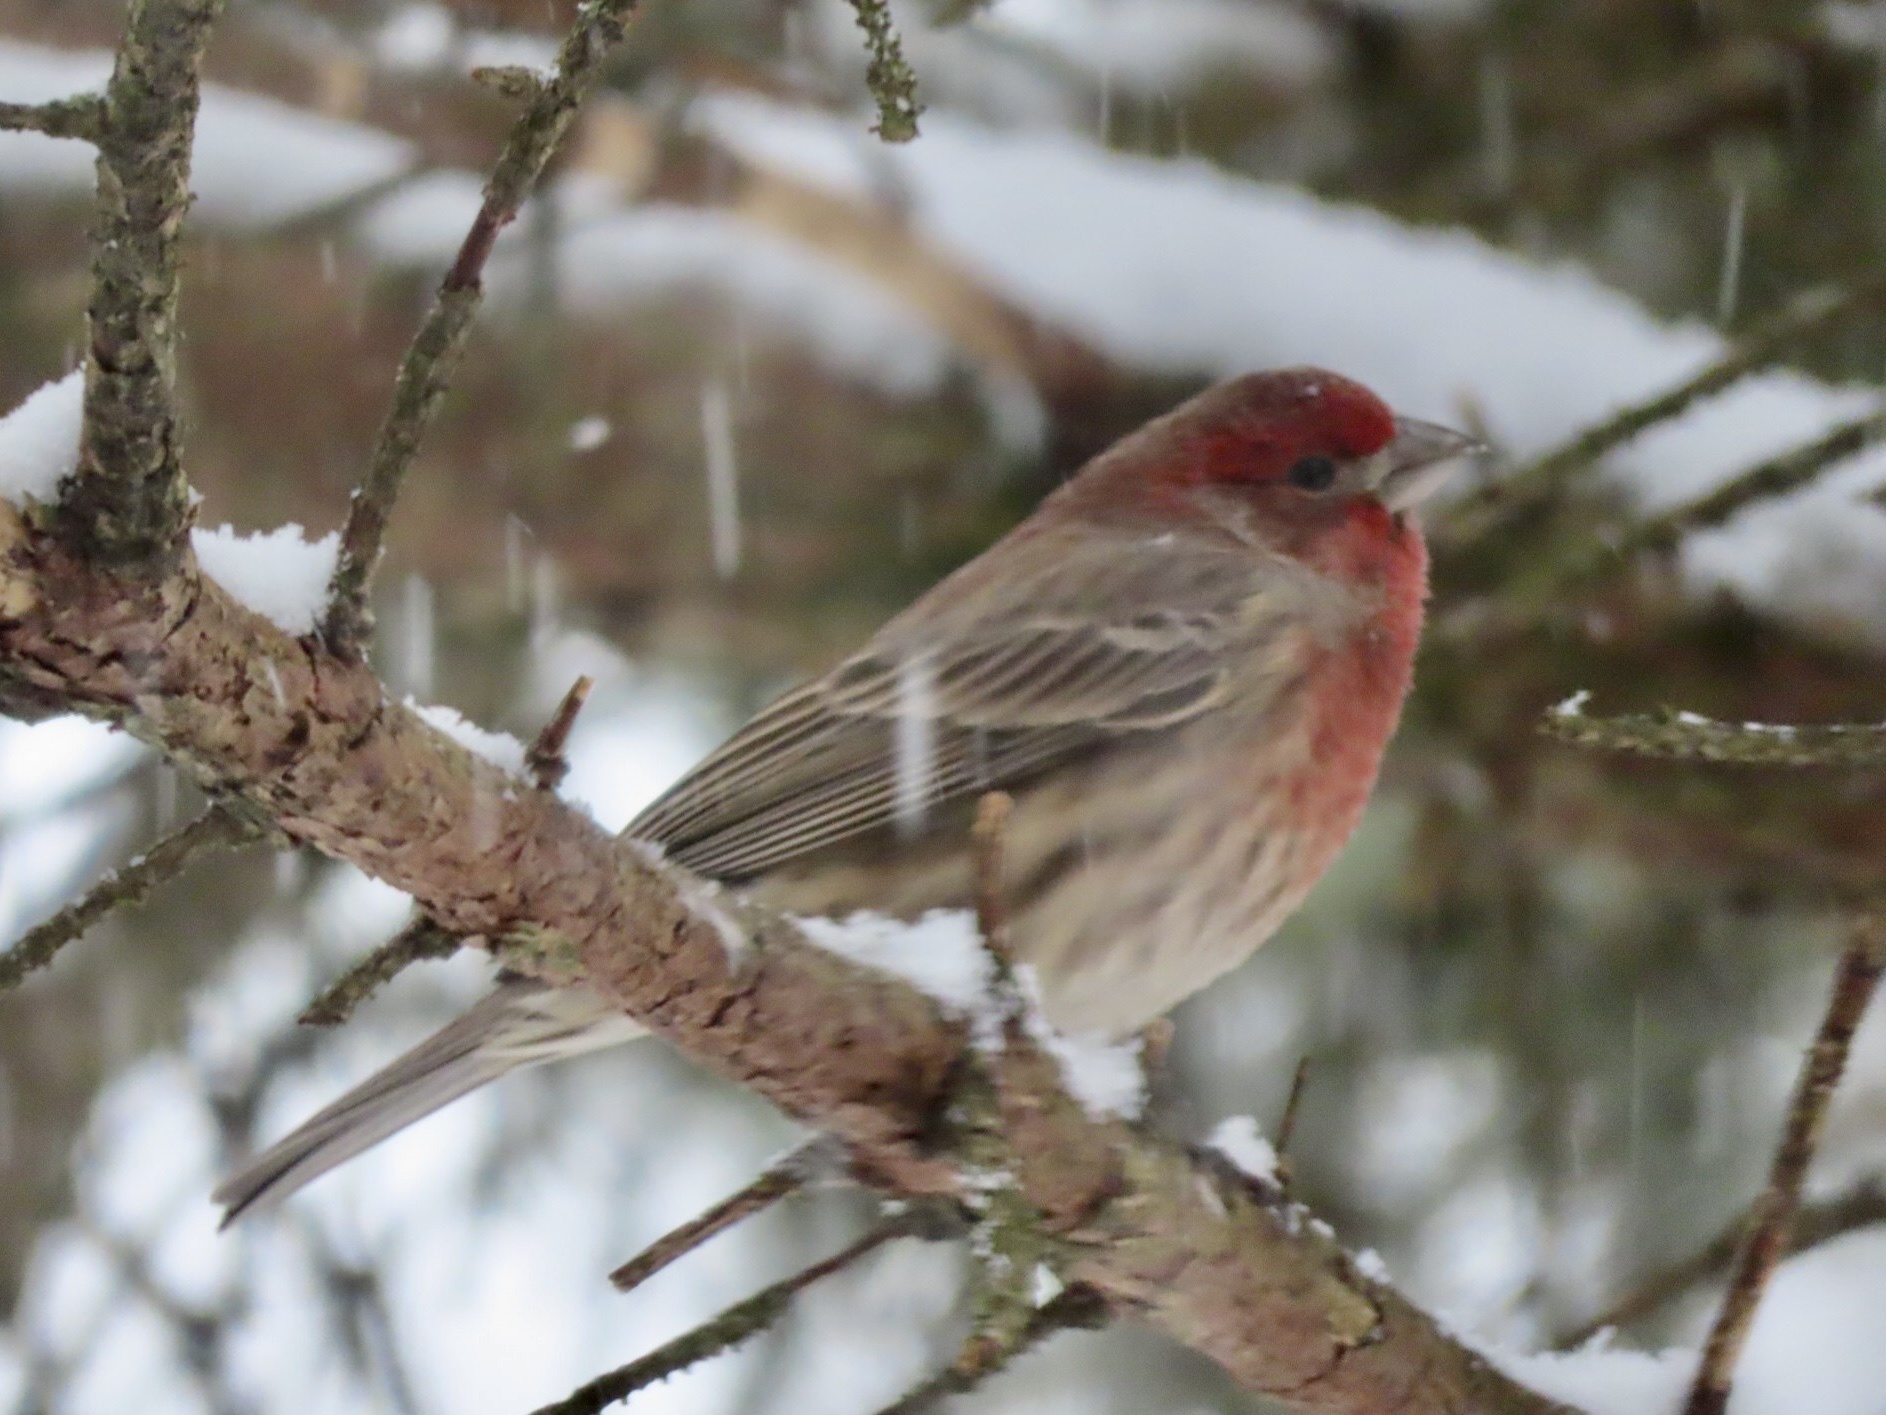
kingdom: Animalia
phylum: Chordata
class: Aves
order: Passeriformes
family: Fringillidae
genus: Haemorhous
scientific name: Haemorhous mexicanus
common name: House finch
